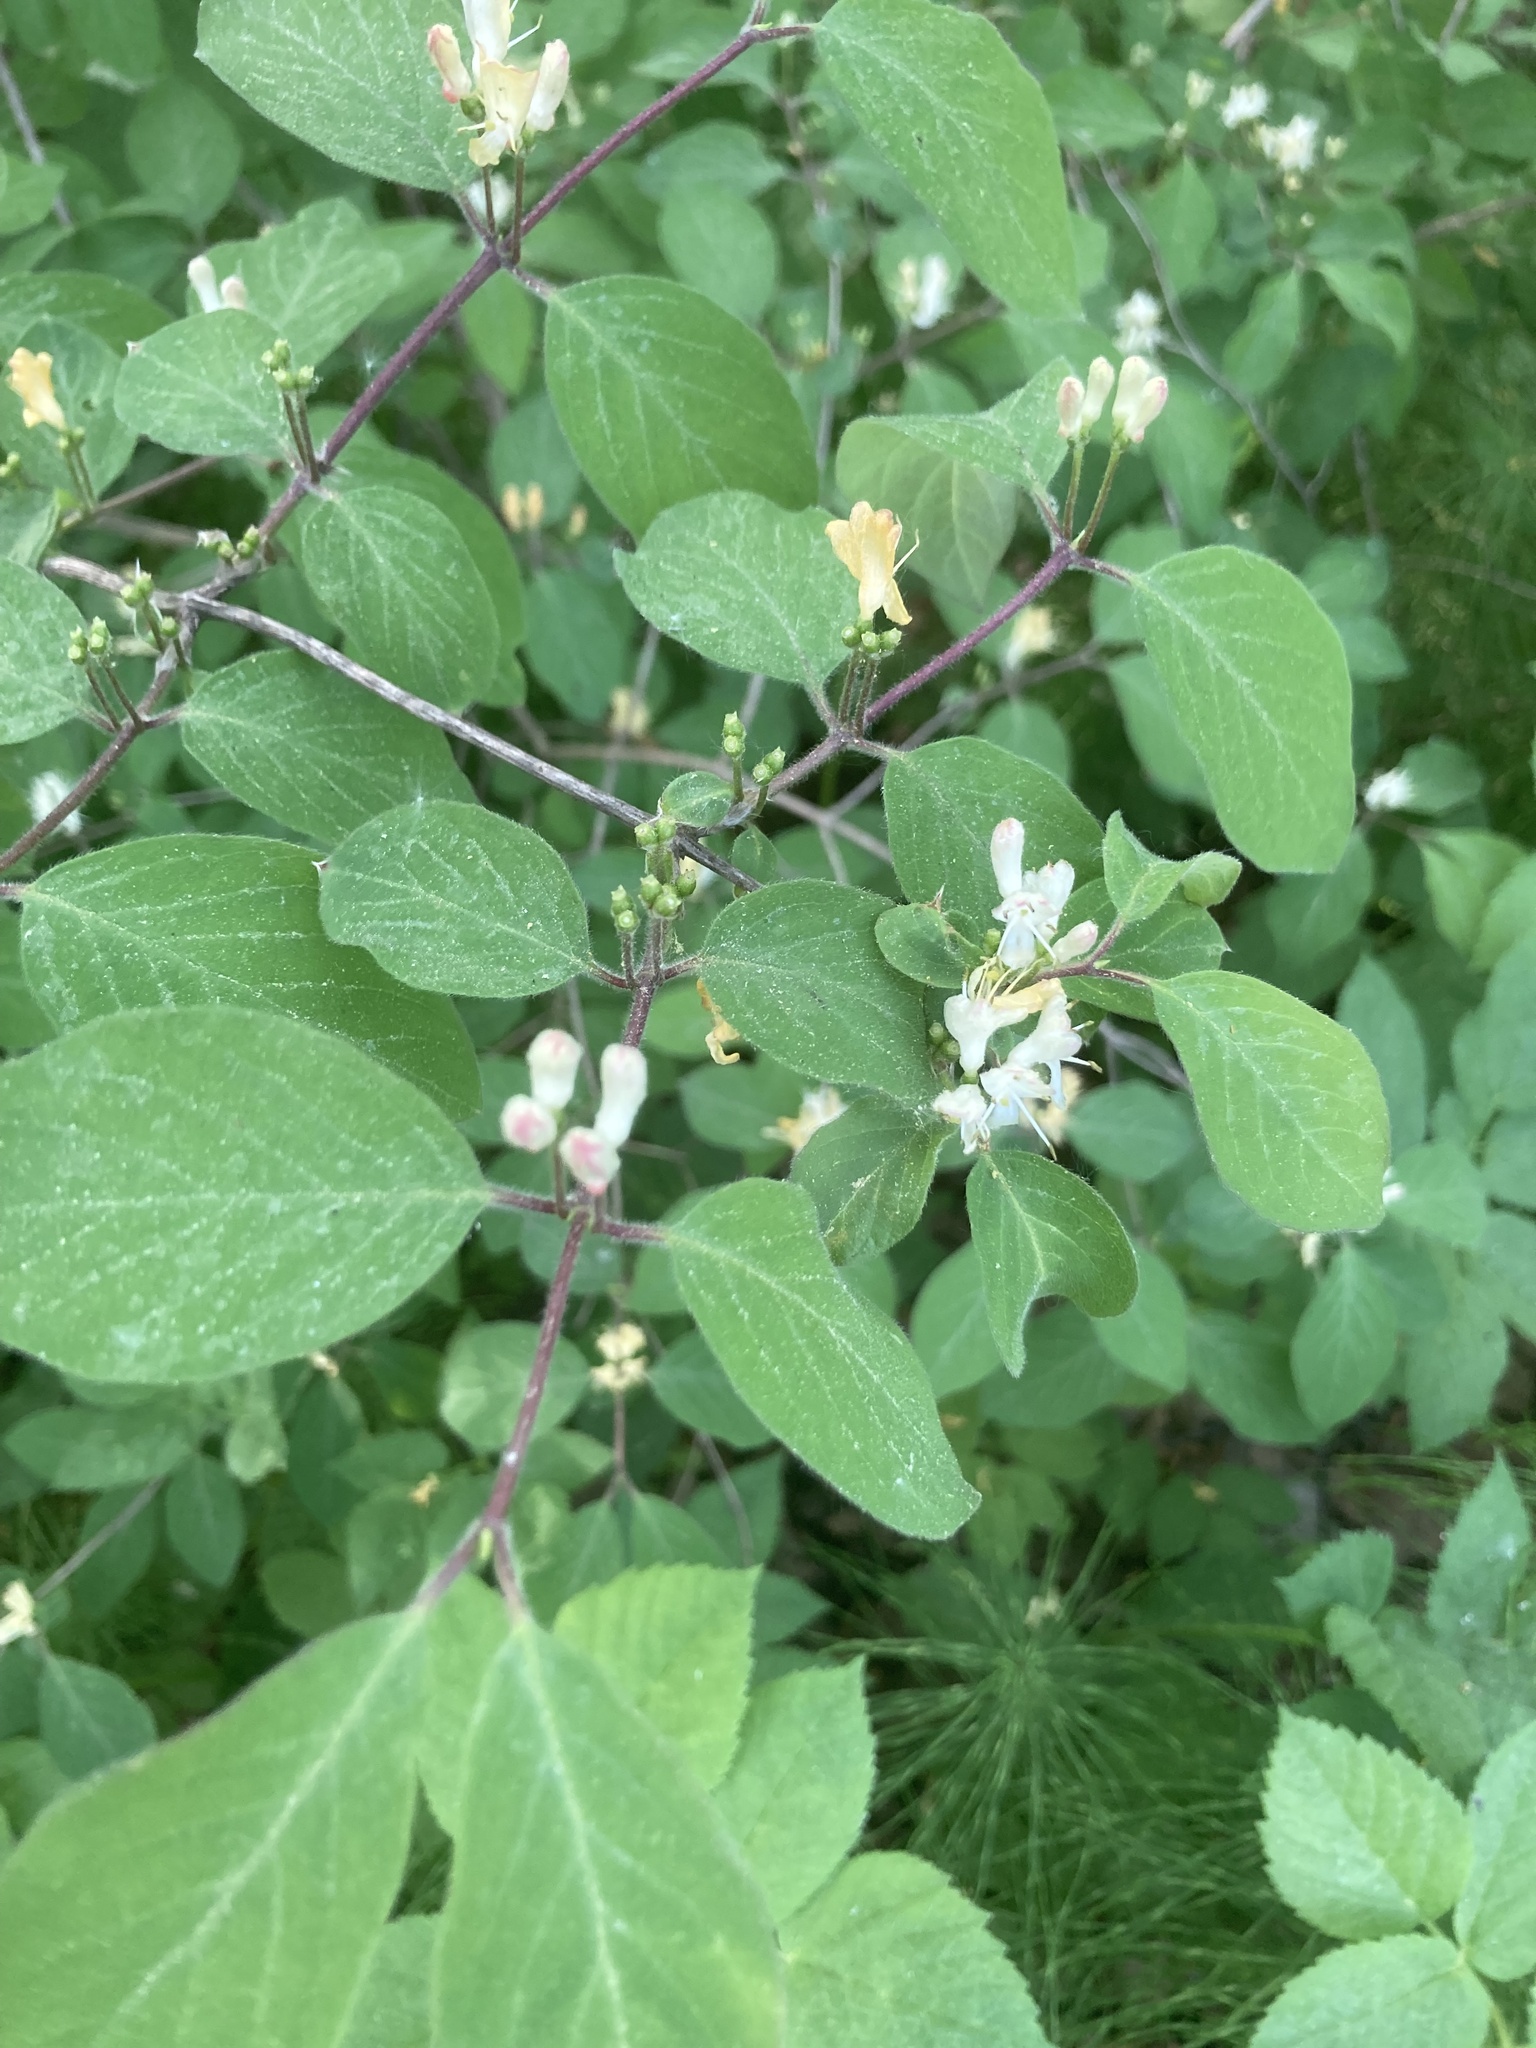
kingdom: Plantae
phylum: Tracheophyta
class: Magnoliopsida
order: Dipsacales
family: Caprifoliaceae
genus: Lonicera
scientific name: Lonicera xylosteum
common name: Fly honeysuckle
